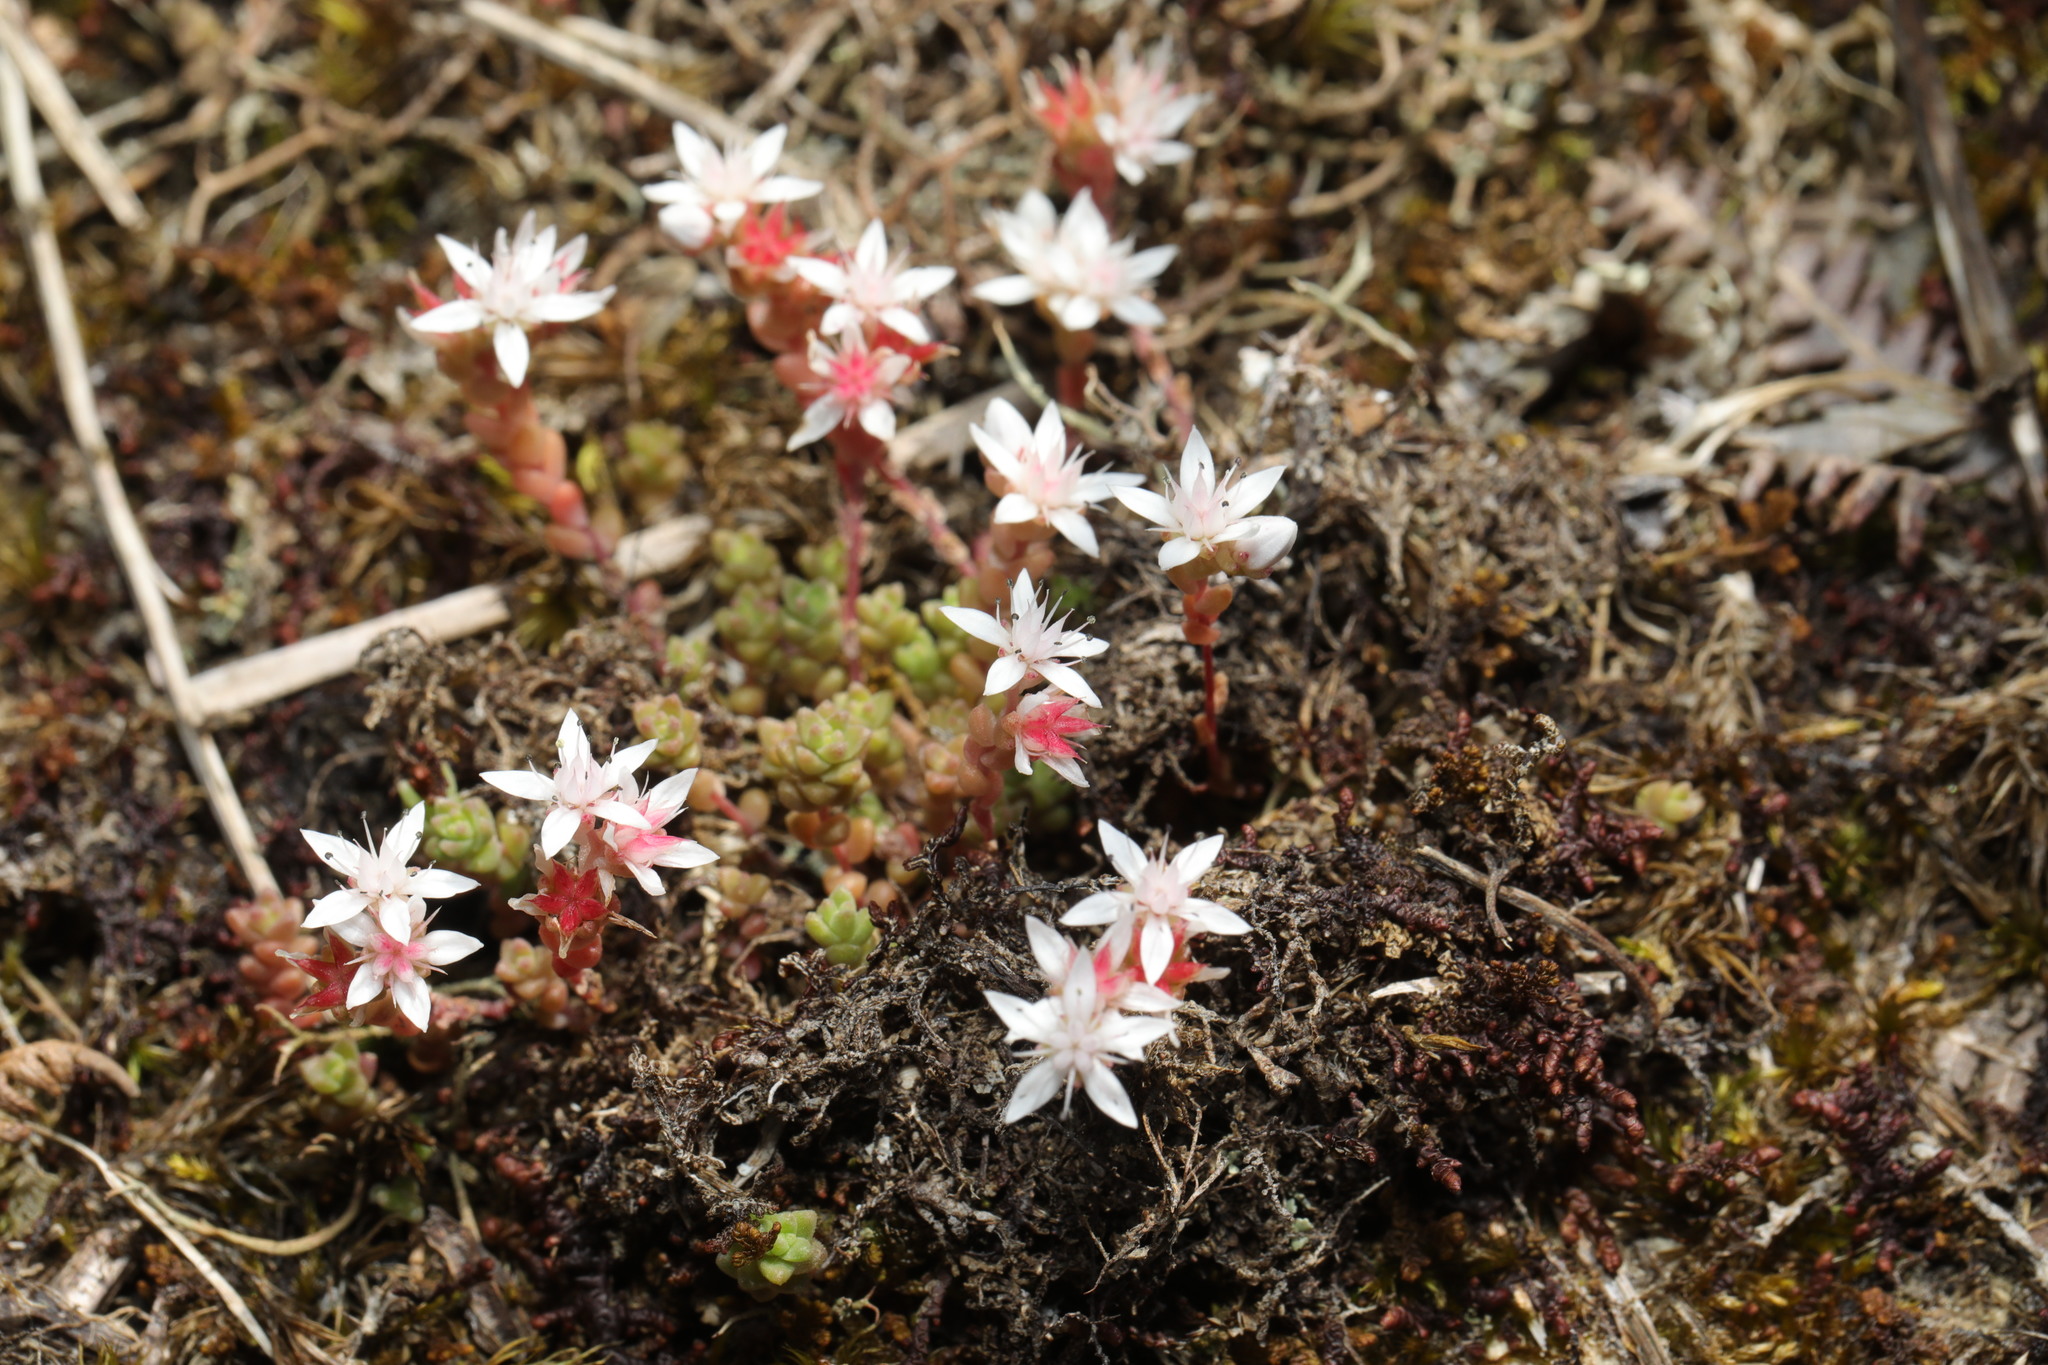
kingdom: Plantae
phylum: Tracheophyta
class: Magnoliopsida
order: Saxifragales
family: Crassulaceae
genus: Sedum
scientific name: Sedum anglicum
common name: English stonecrop
